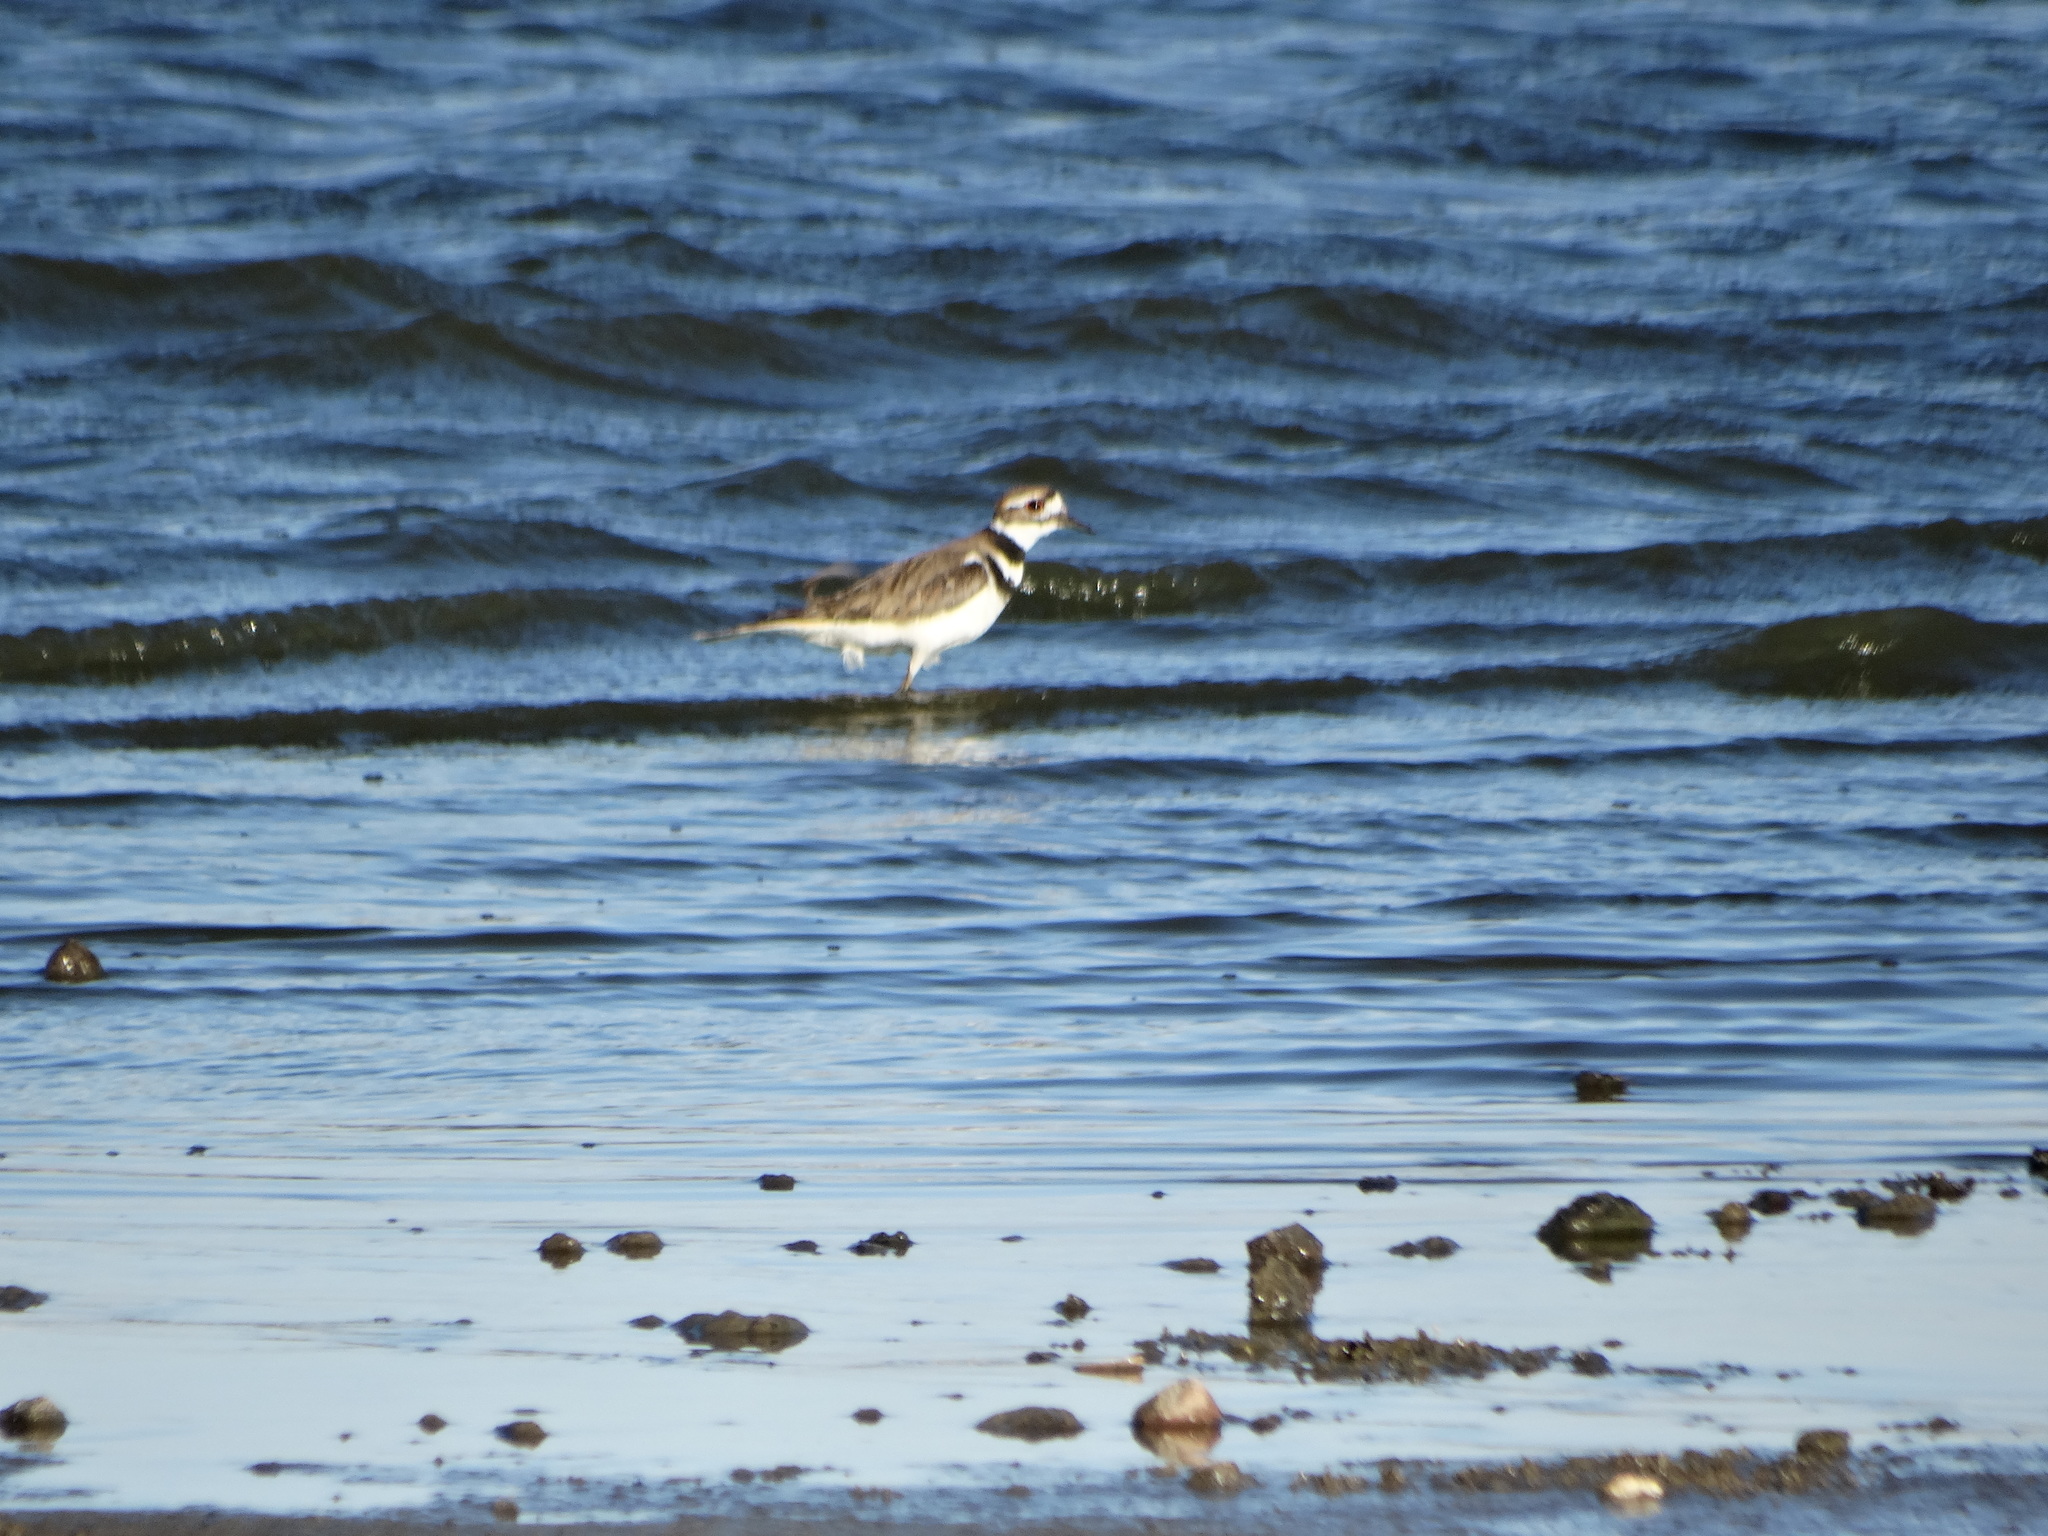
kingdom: Animalia
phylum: Chordata
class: Aves
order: Charadriiformes
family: Charadriidae
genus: Charadrius
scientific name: Charadrius vociferus
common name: Killdeer
